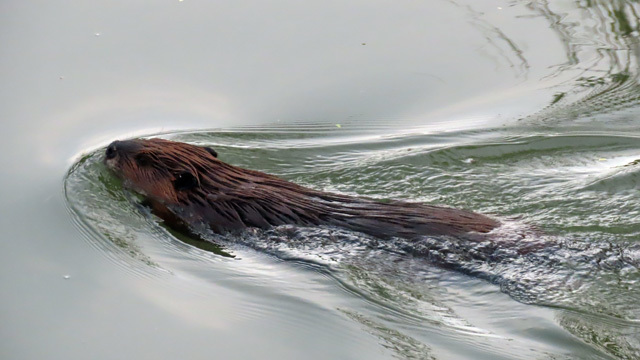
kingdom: Animalia
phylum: Chordata
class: Mammalia
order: Rodentia
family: Castoridae
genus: Castor
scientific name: Castor canadensis
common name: American beaver
